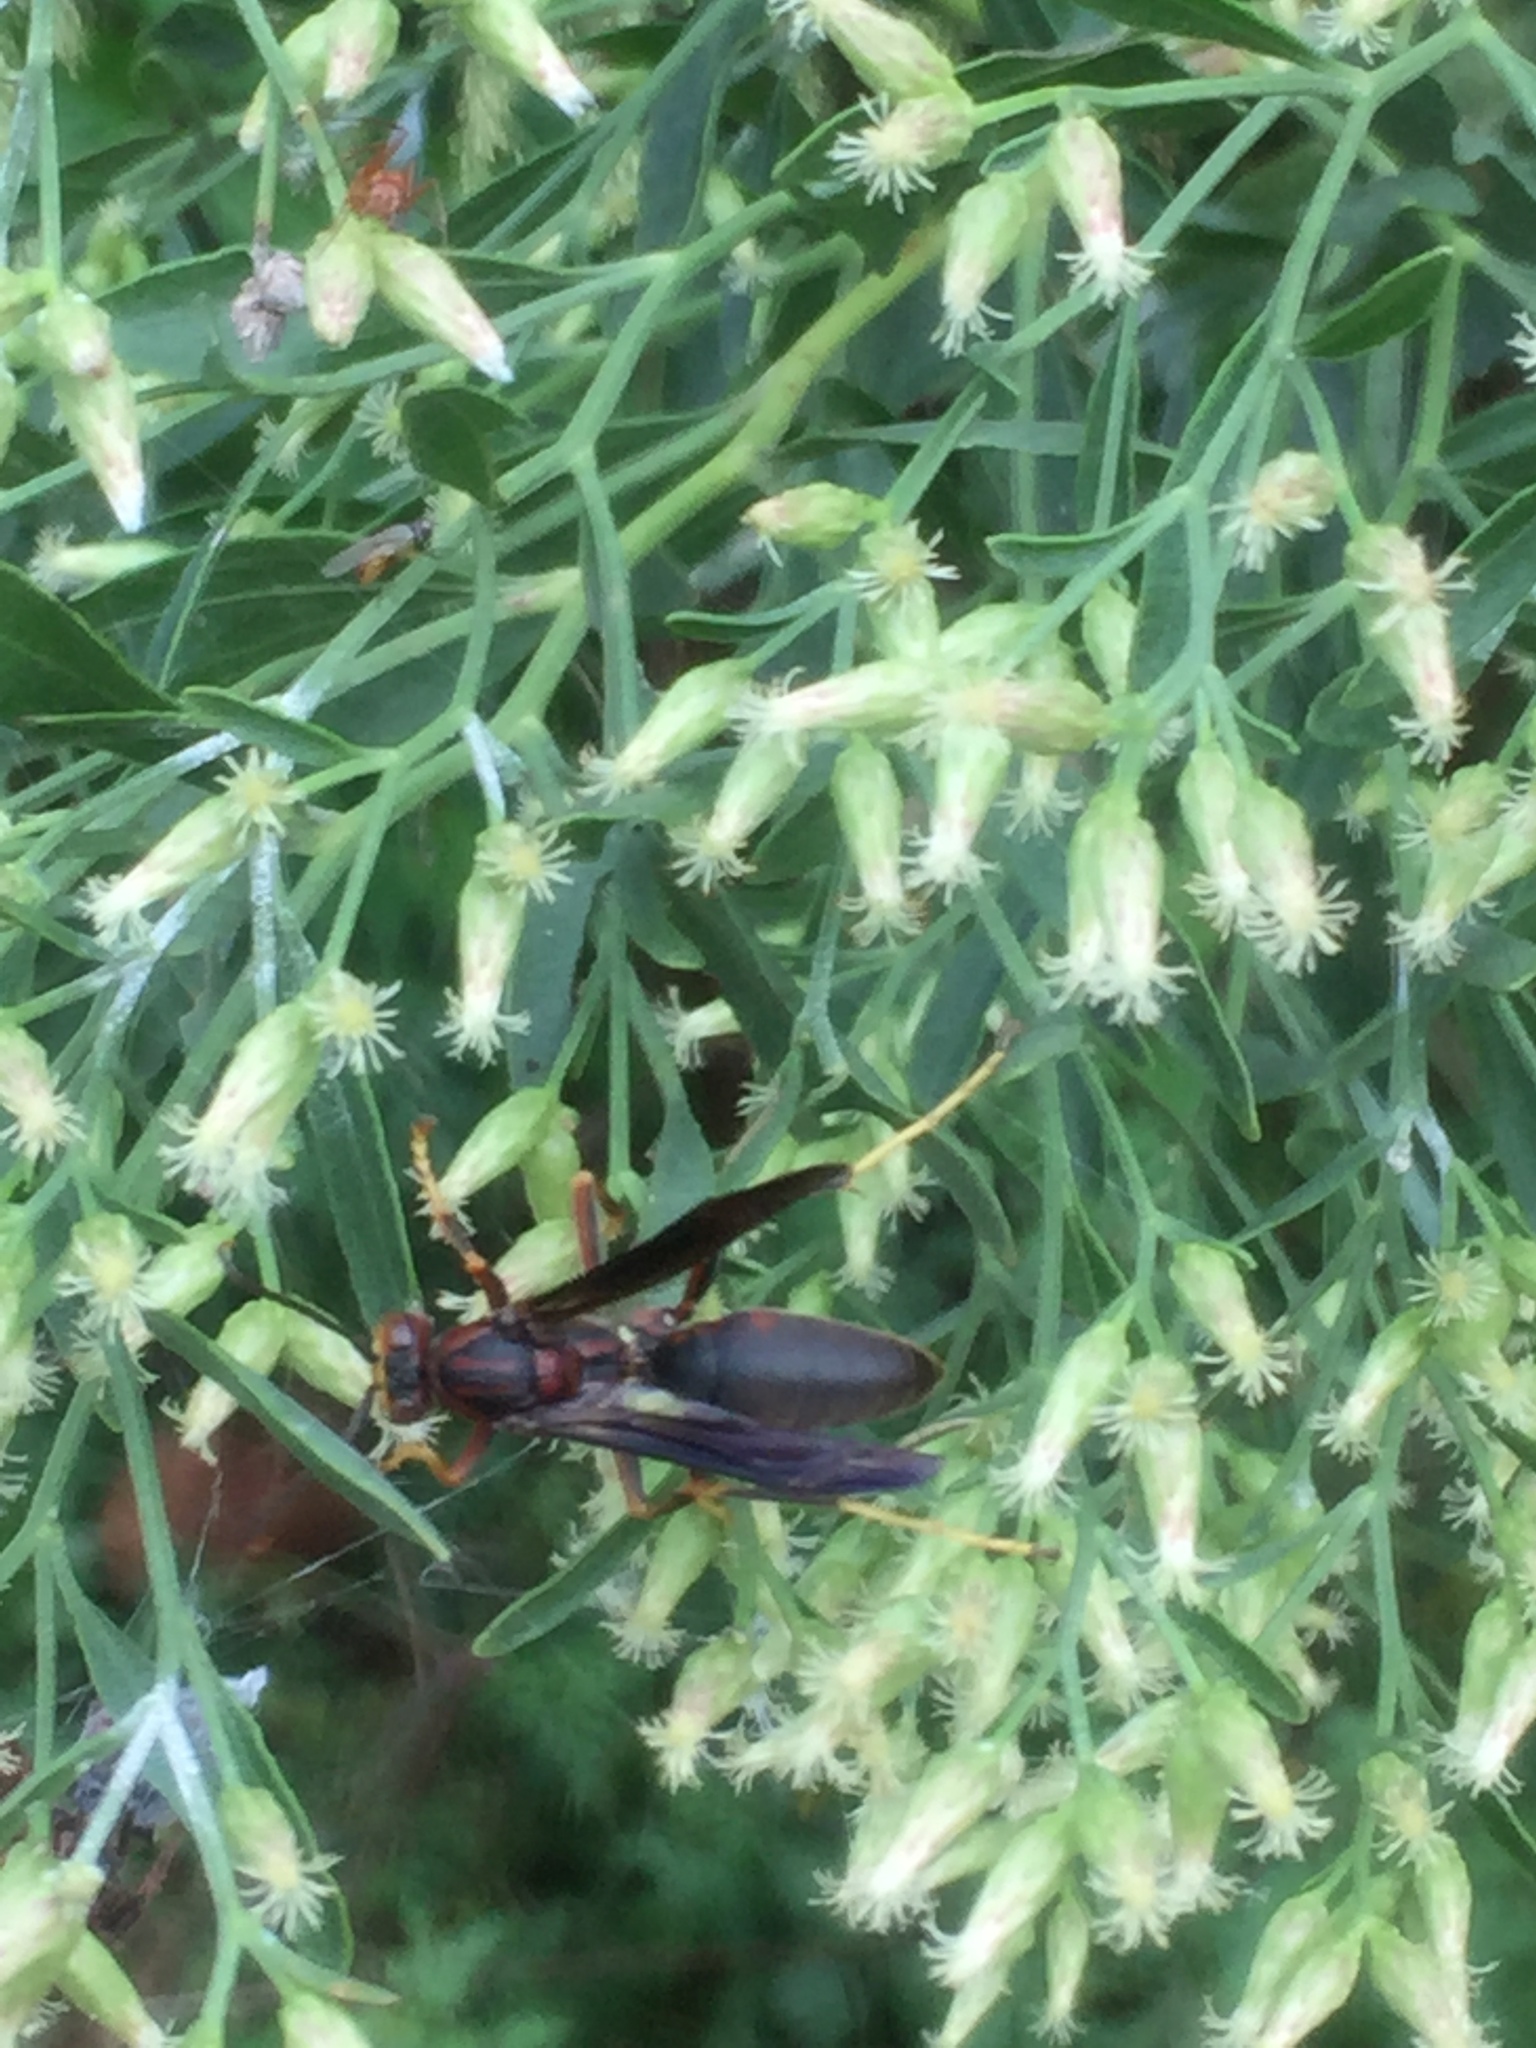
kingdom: Animalia
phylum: Arthropoda
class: Insecta
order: Hymenoptera
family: Eumenidae
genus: Polistes
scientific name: Polistes metricus
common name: Metric paper wasp
